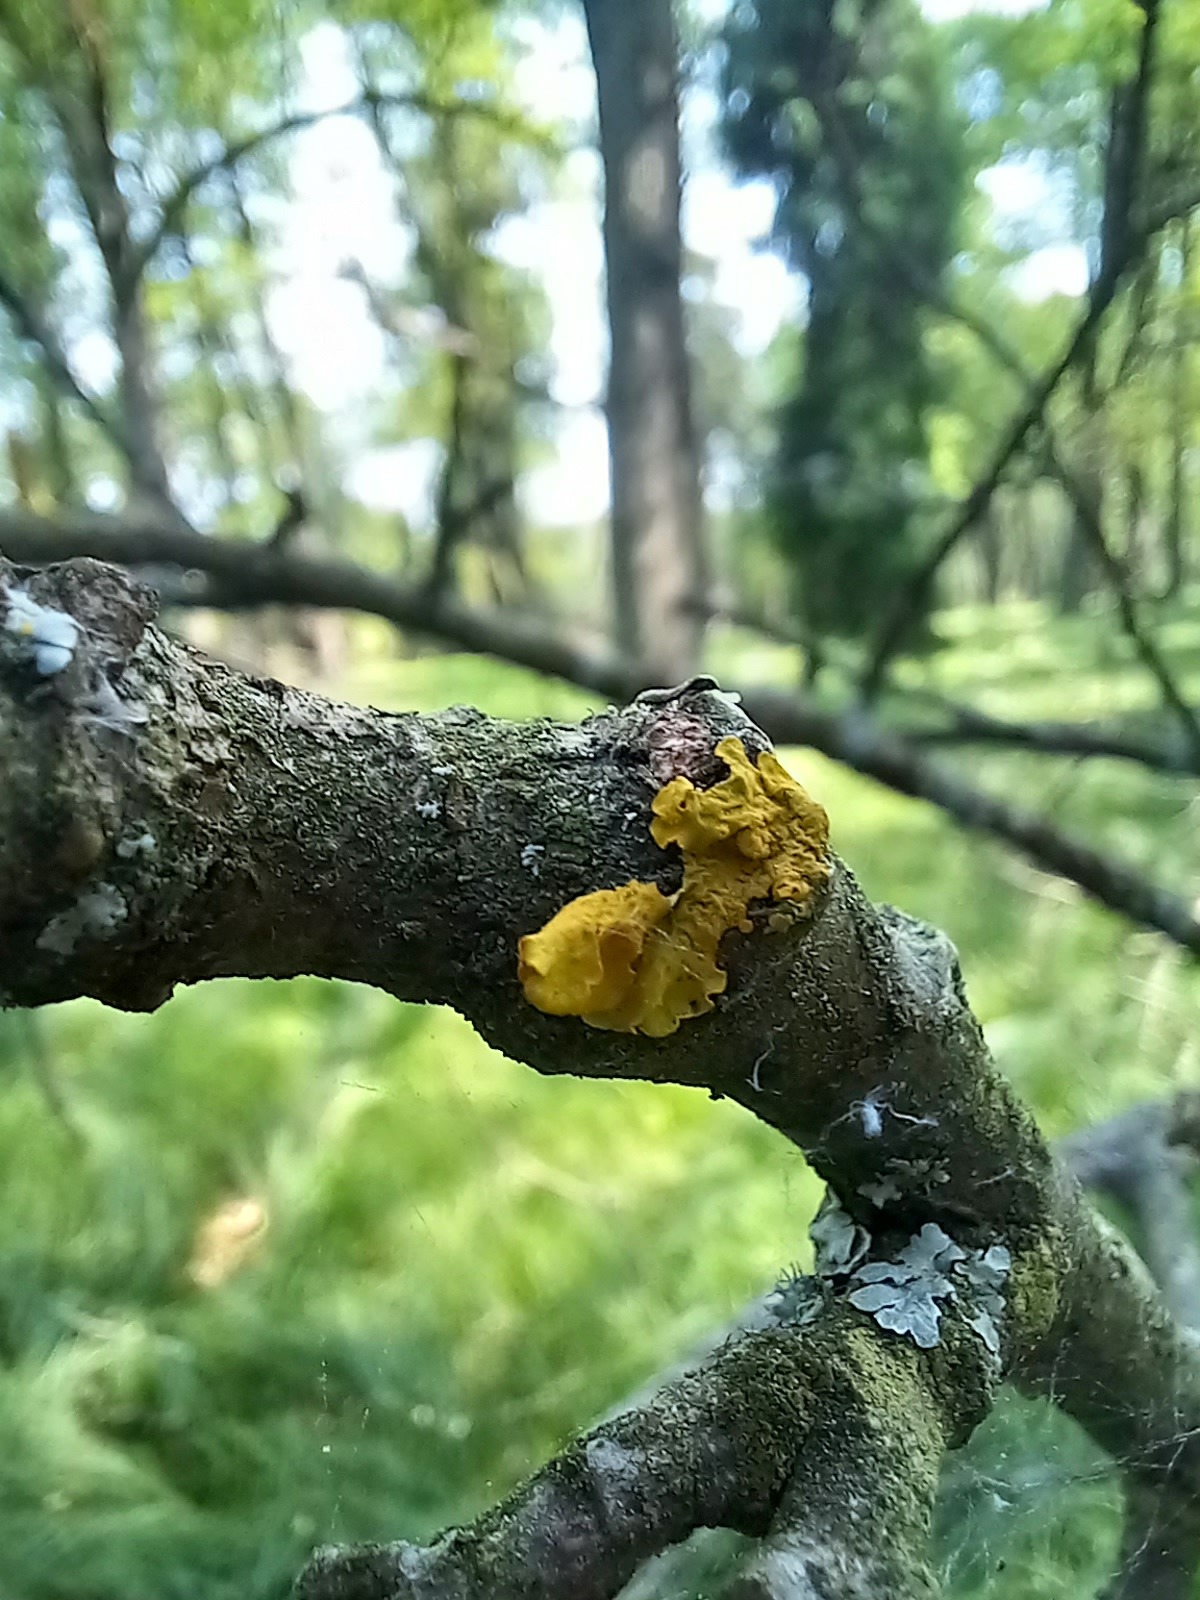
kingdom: Fungi
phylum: Ascomycota
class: Lecanoromycetes
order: Teloschistales
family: Teloschistaceae
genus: Xanthoria
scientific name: Xanthoria parietina
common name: Common orange lichen
